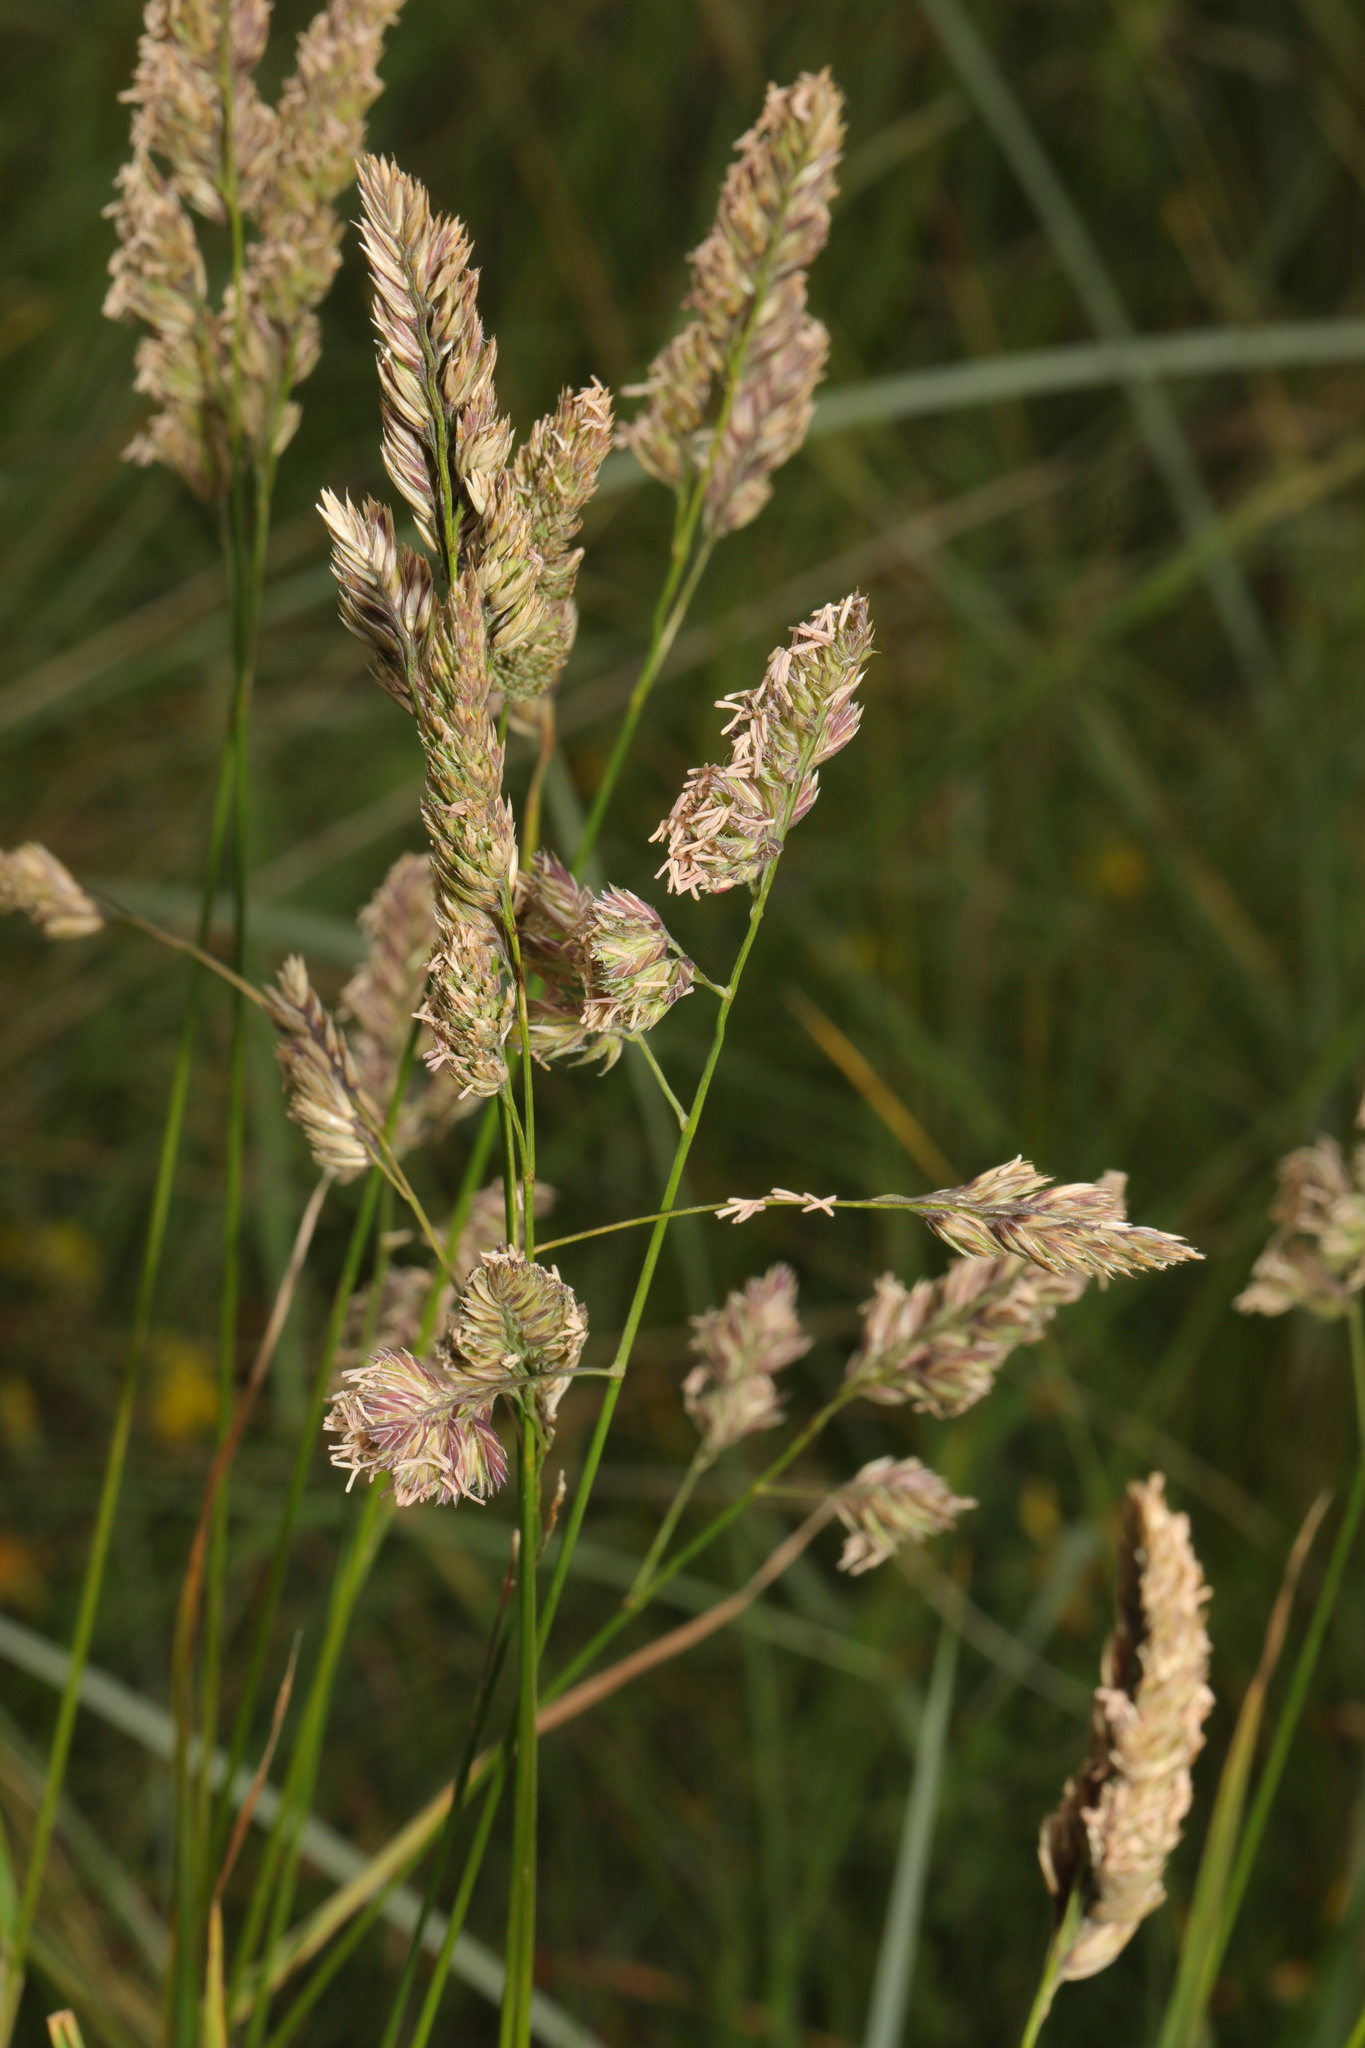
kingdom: Plantae
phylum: Tracheophyta
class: Liliopsida
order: Poales
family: Poaceae
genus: Dactylis
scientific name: Dactylis glomerata
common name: Orchardgrass
